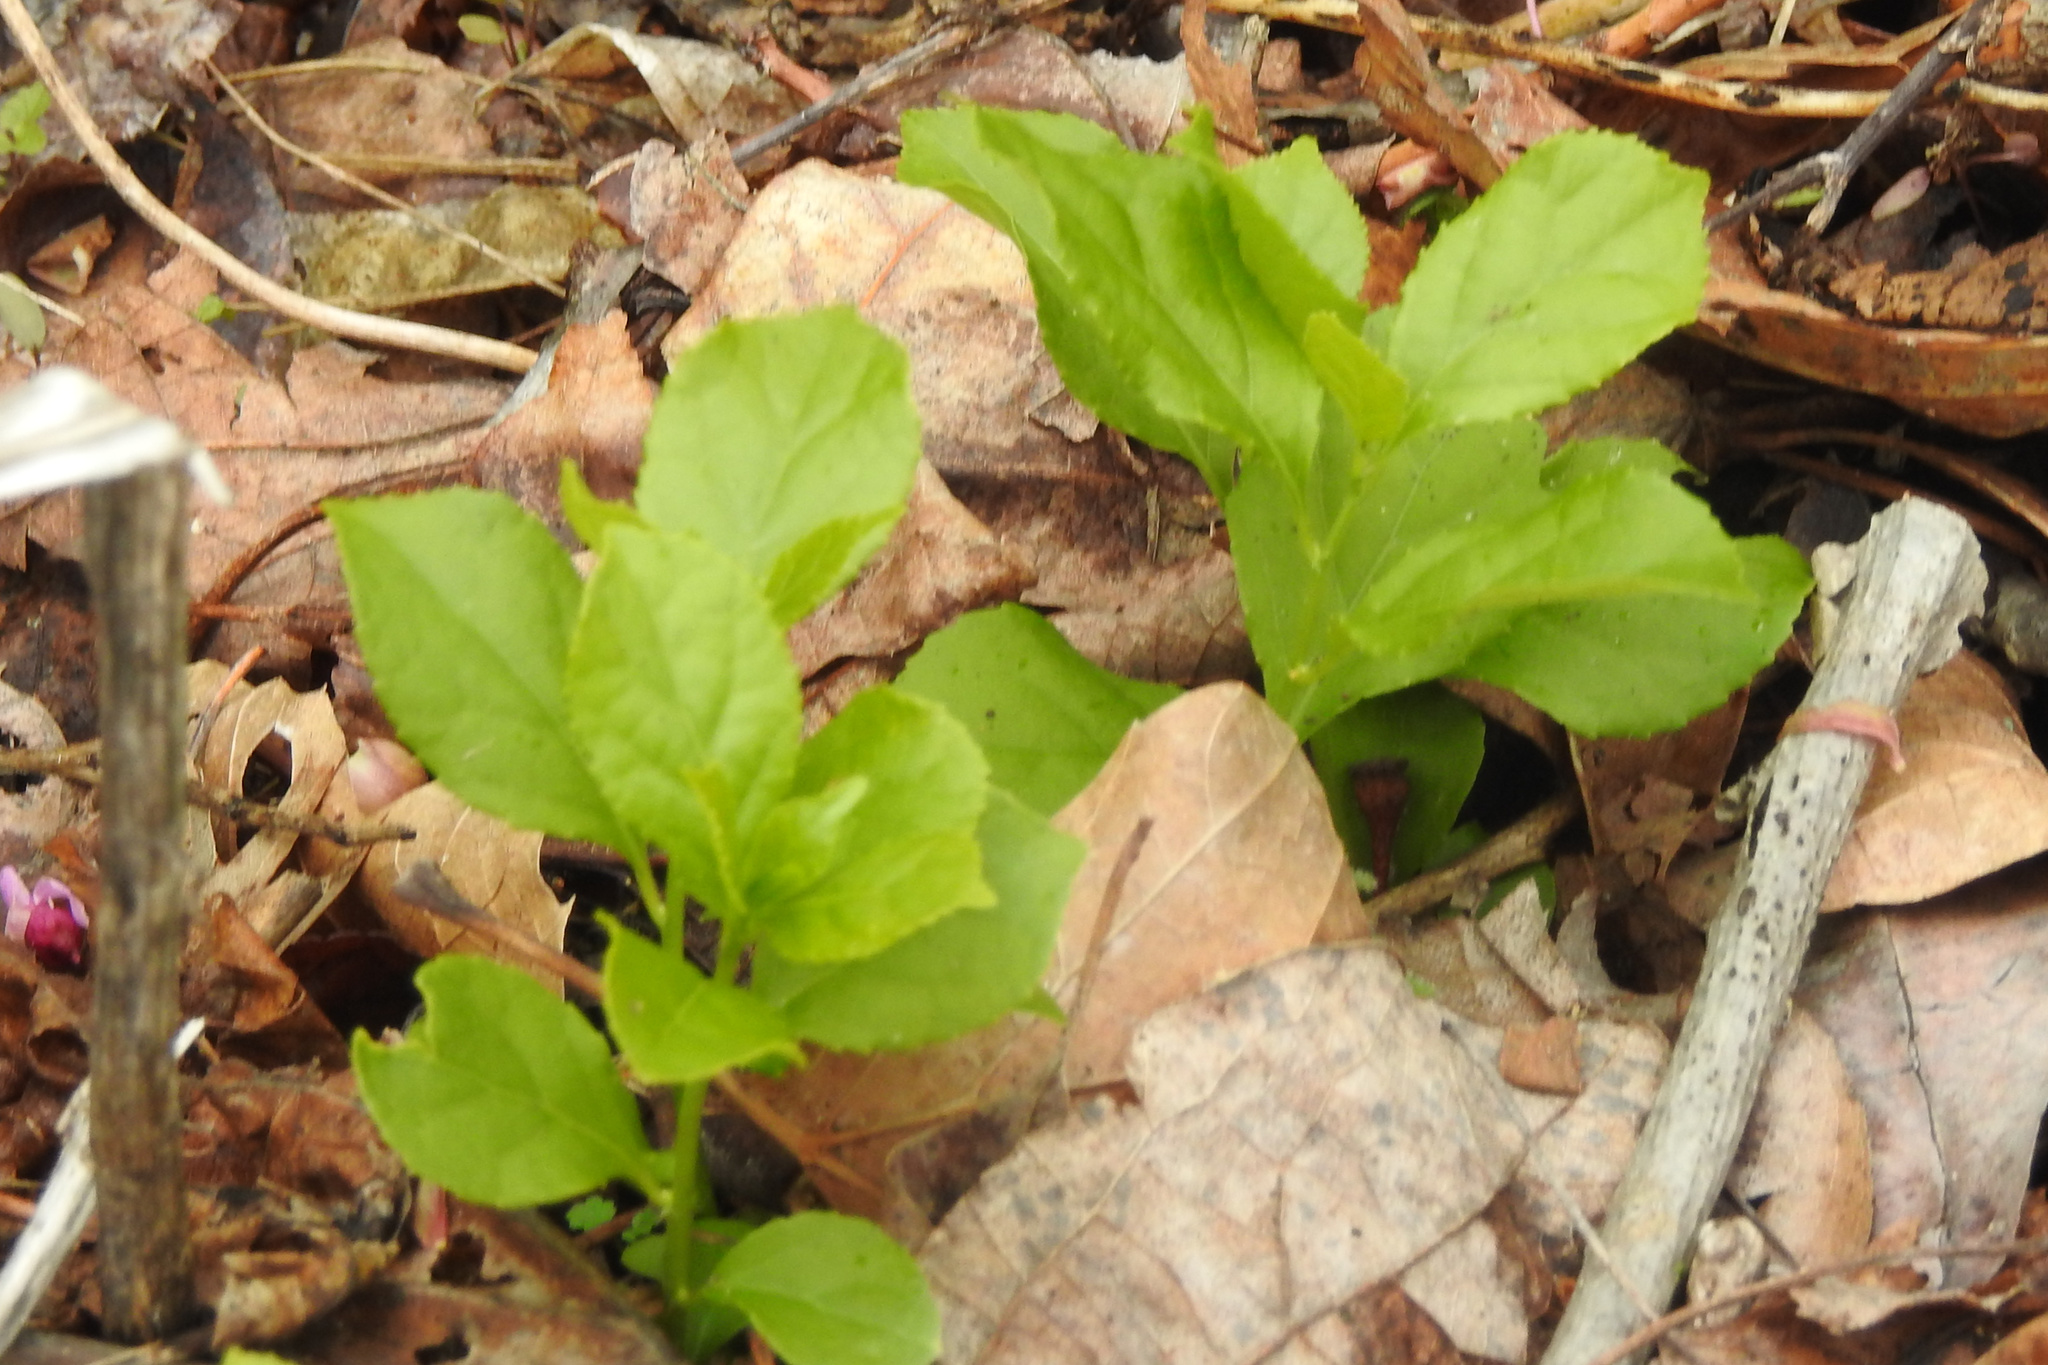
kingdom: Plantae
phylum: Tracheophyta
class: Magnoliopsida
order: Celastrales
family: Celastraceae
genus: Celastrus
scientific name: Celastrus orbiculatus
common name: Oriental bittersweet
